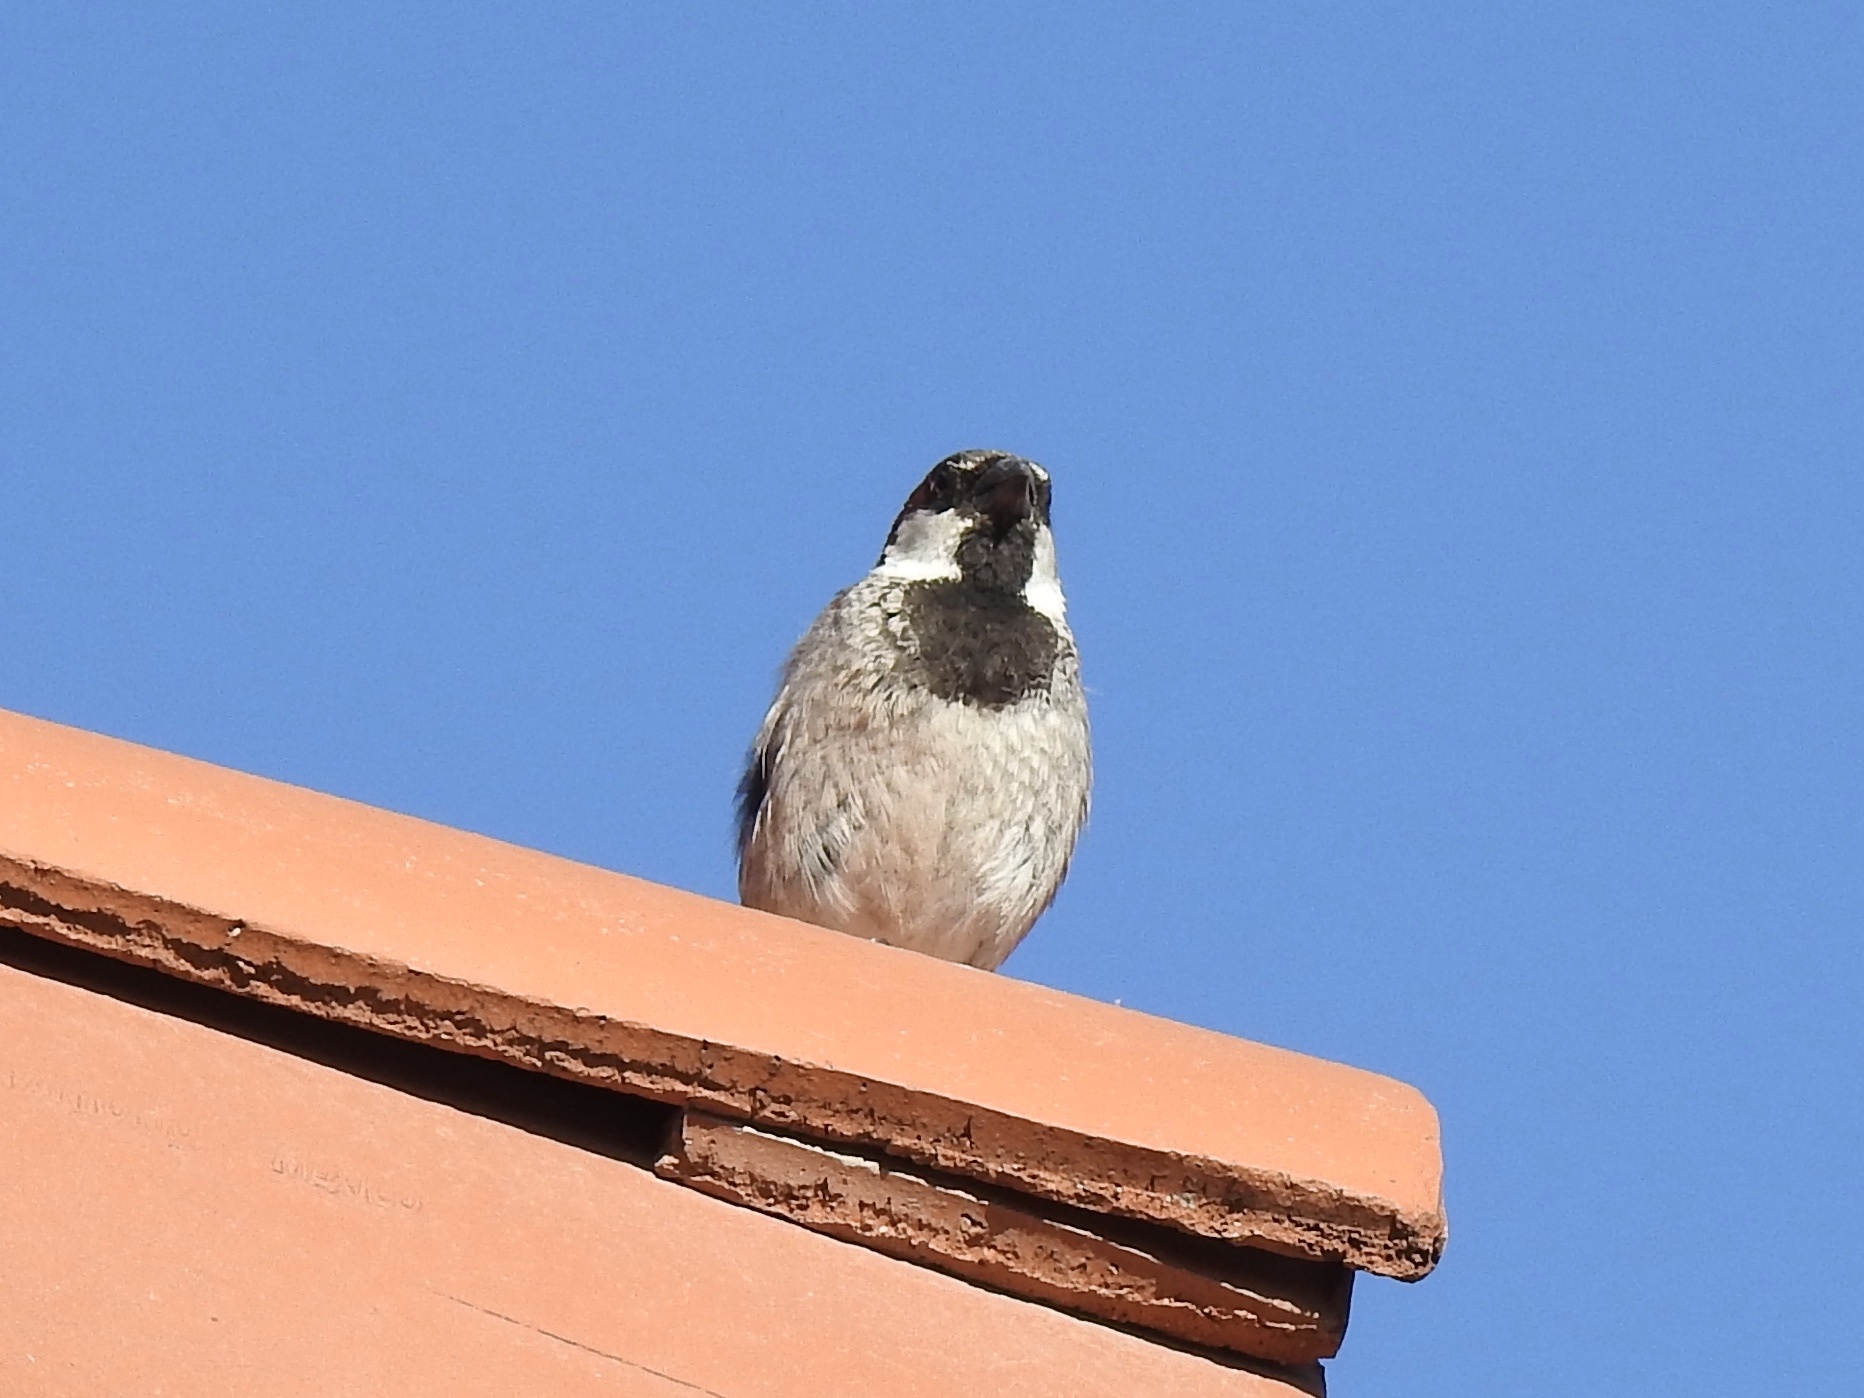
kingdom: Animalia
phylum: Chordata
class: Aves
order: Passeriformes
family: Passeridae
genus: Passer
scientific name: Passer domesticus
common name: House sparrow
